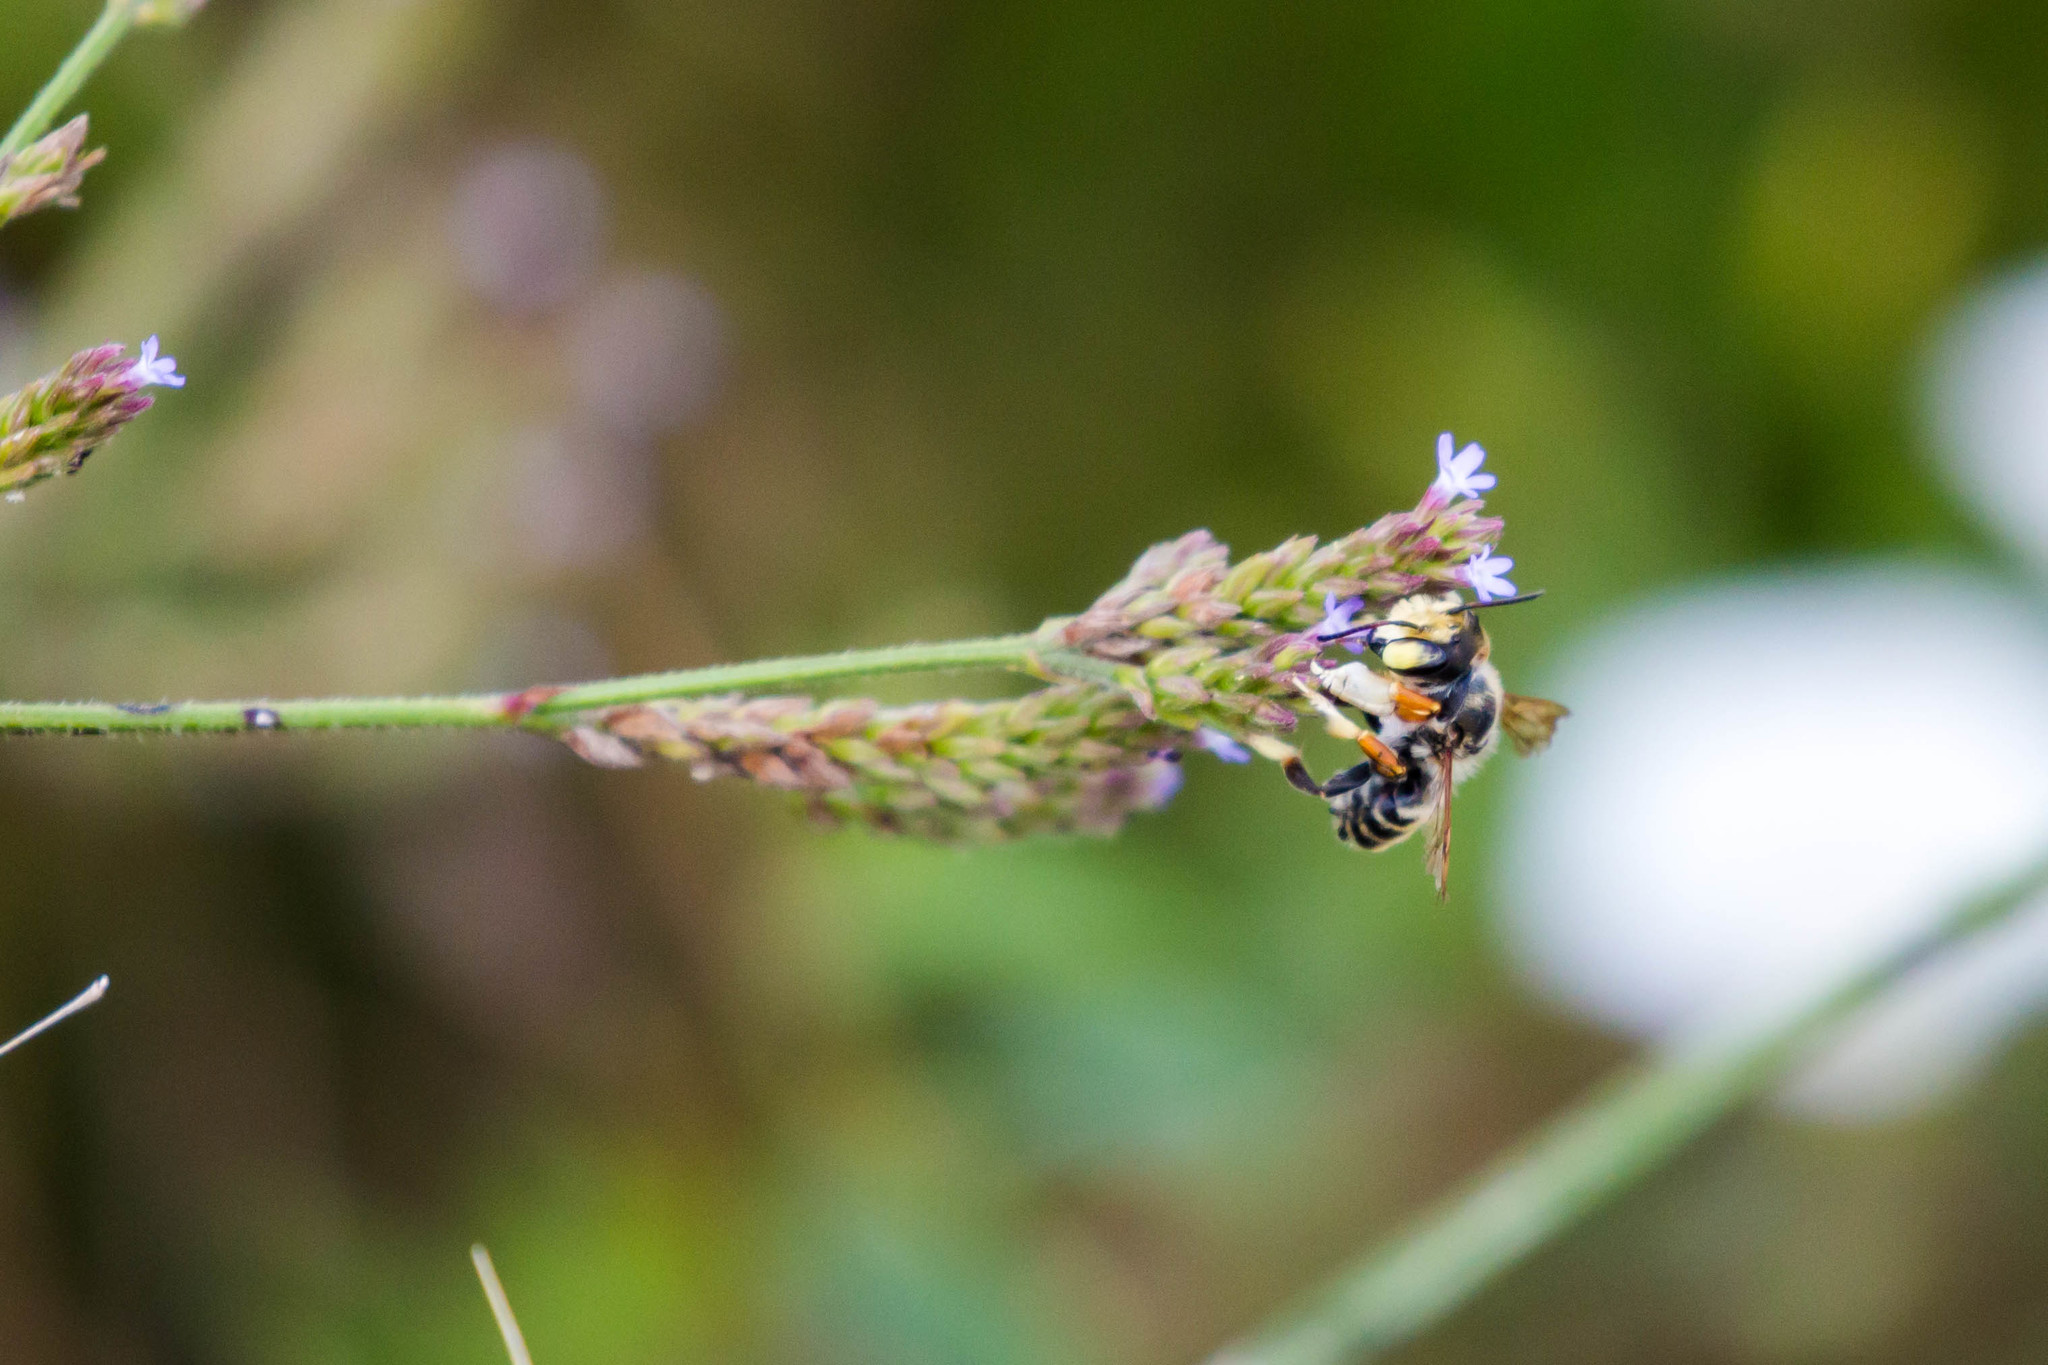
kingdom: Animalia
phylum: Arthropoda
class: Insecta
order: Hymenoptera
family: Megachilidae
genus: Megachile
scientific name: Megachile albitarsis
